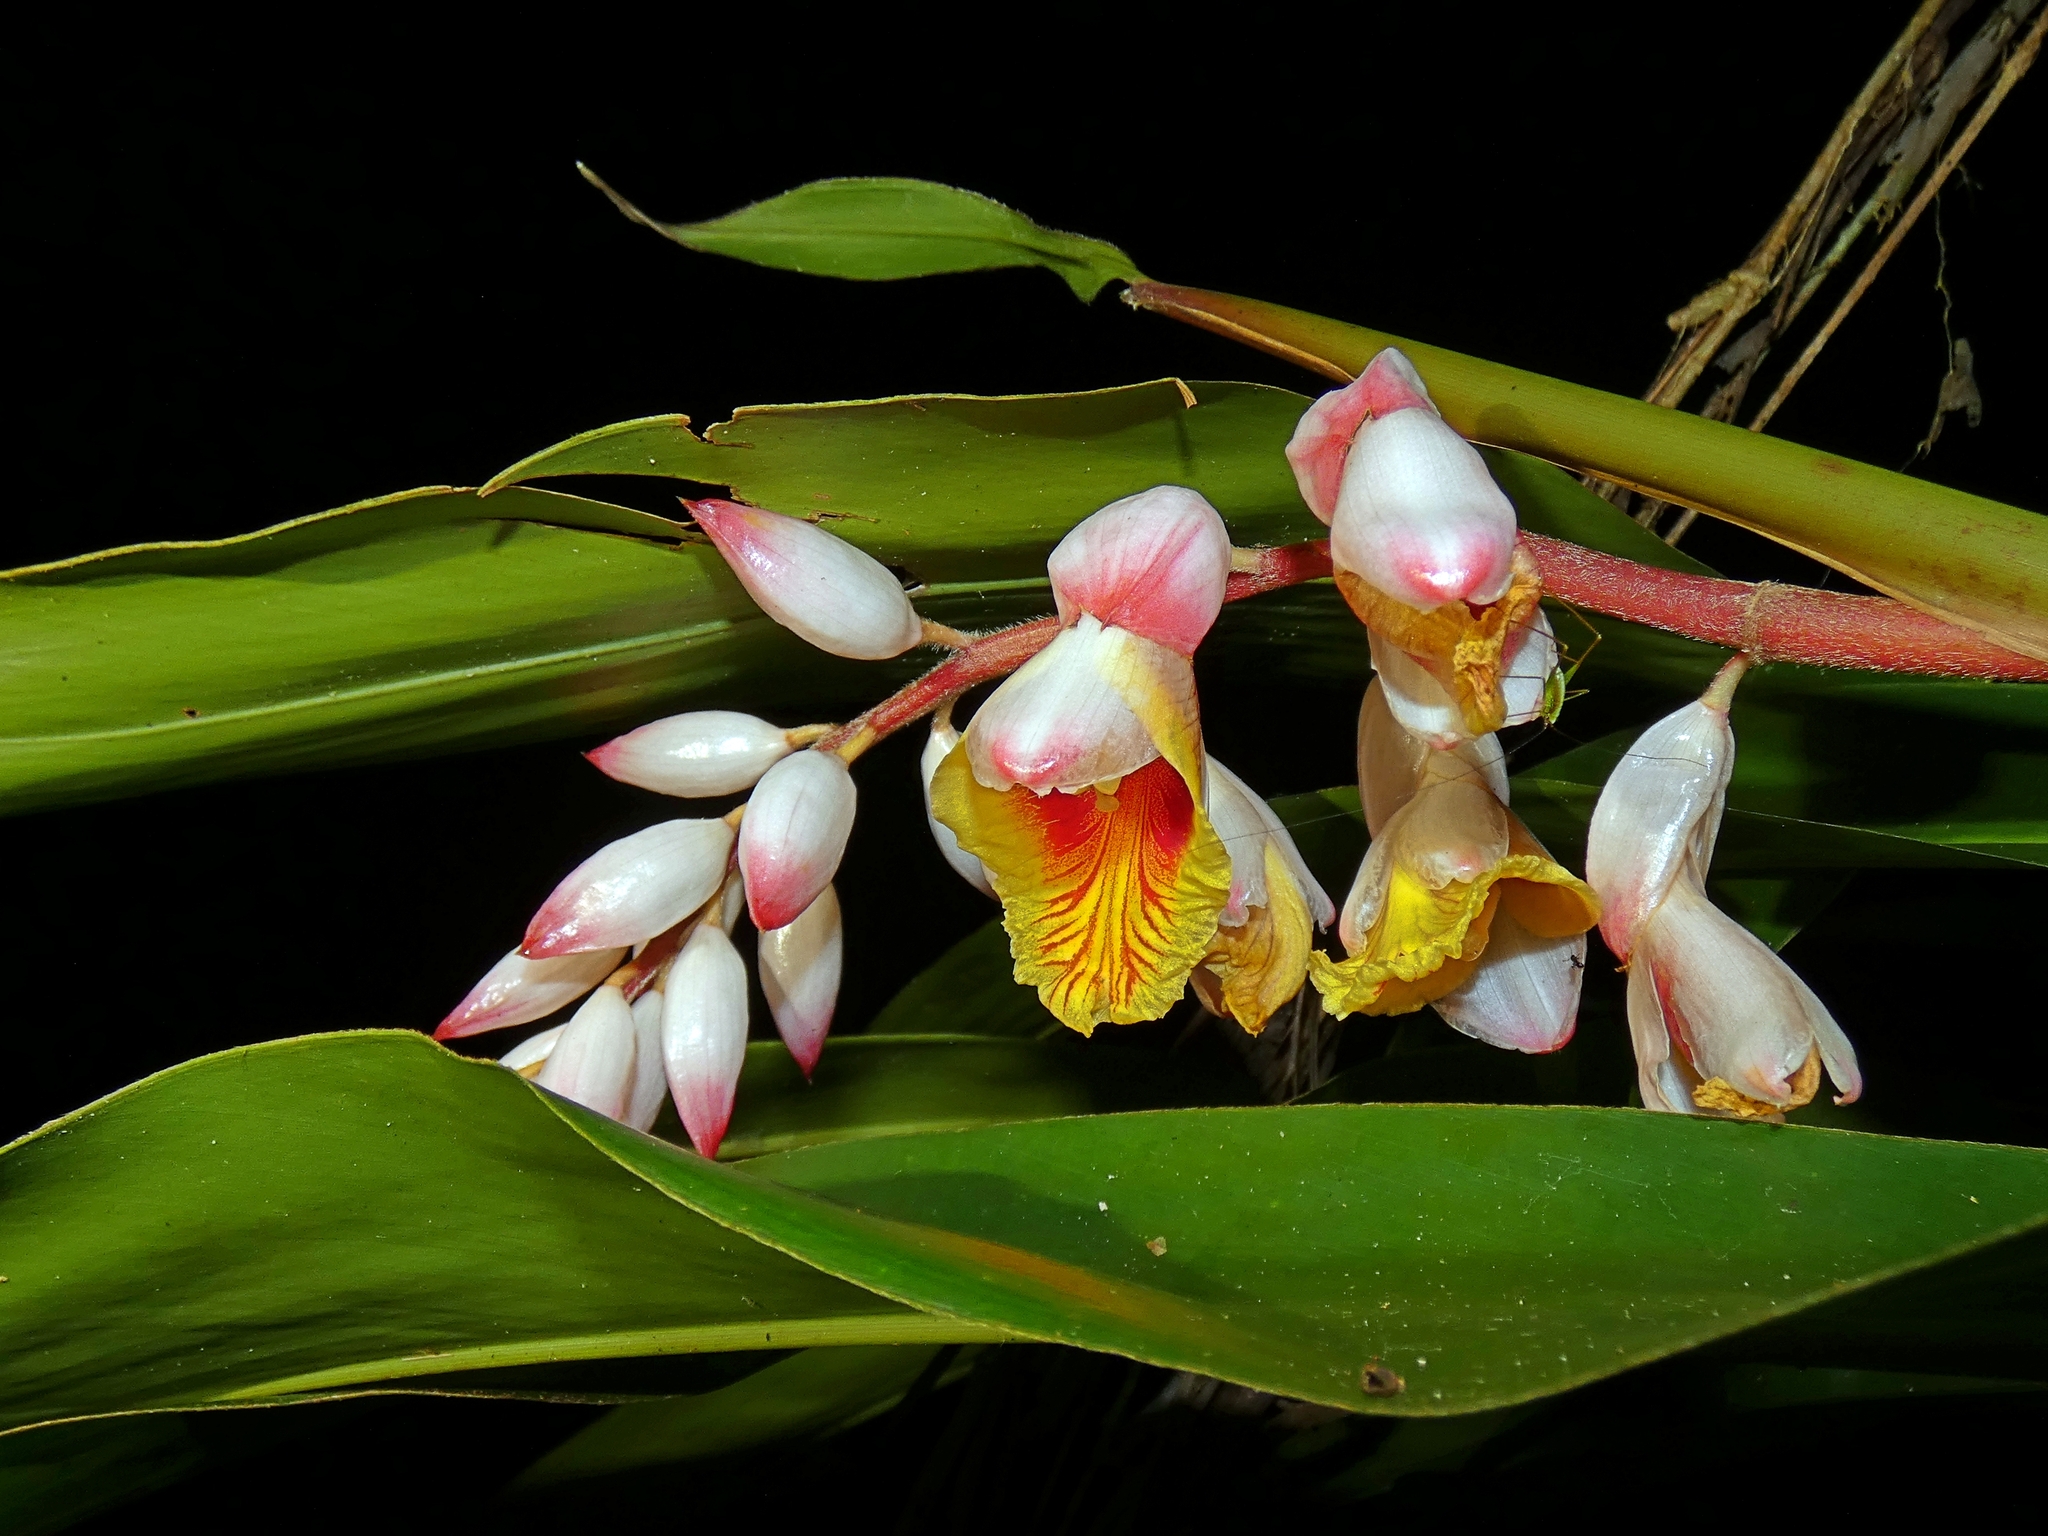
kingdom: Plantae
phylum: Tracheophyta
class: Liliopsida
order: Zingiberales
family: Zingiberaceae
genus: Alpinia
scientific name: Alpinia zerumbet
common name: Shellplant
